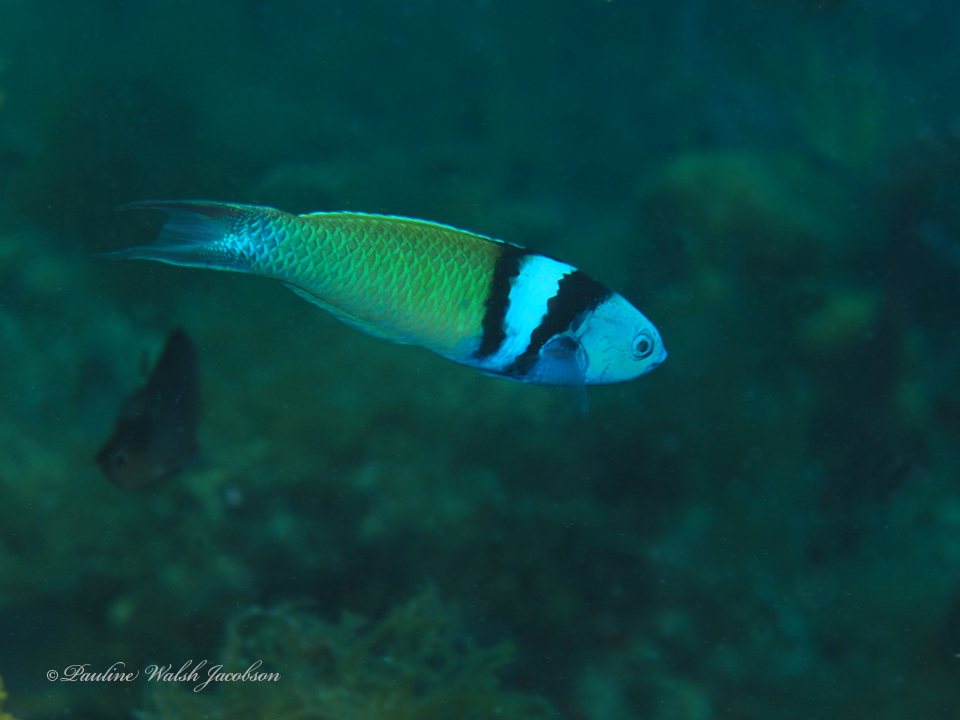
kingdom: Animalia
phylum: Chordata
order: Perciformes
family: Labridae
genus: Thalassoma
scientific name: Thalassoma bifasciatum
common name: Bluehead wrasse
